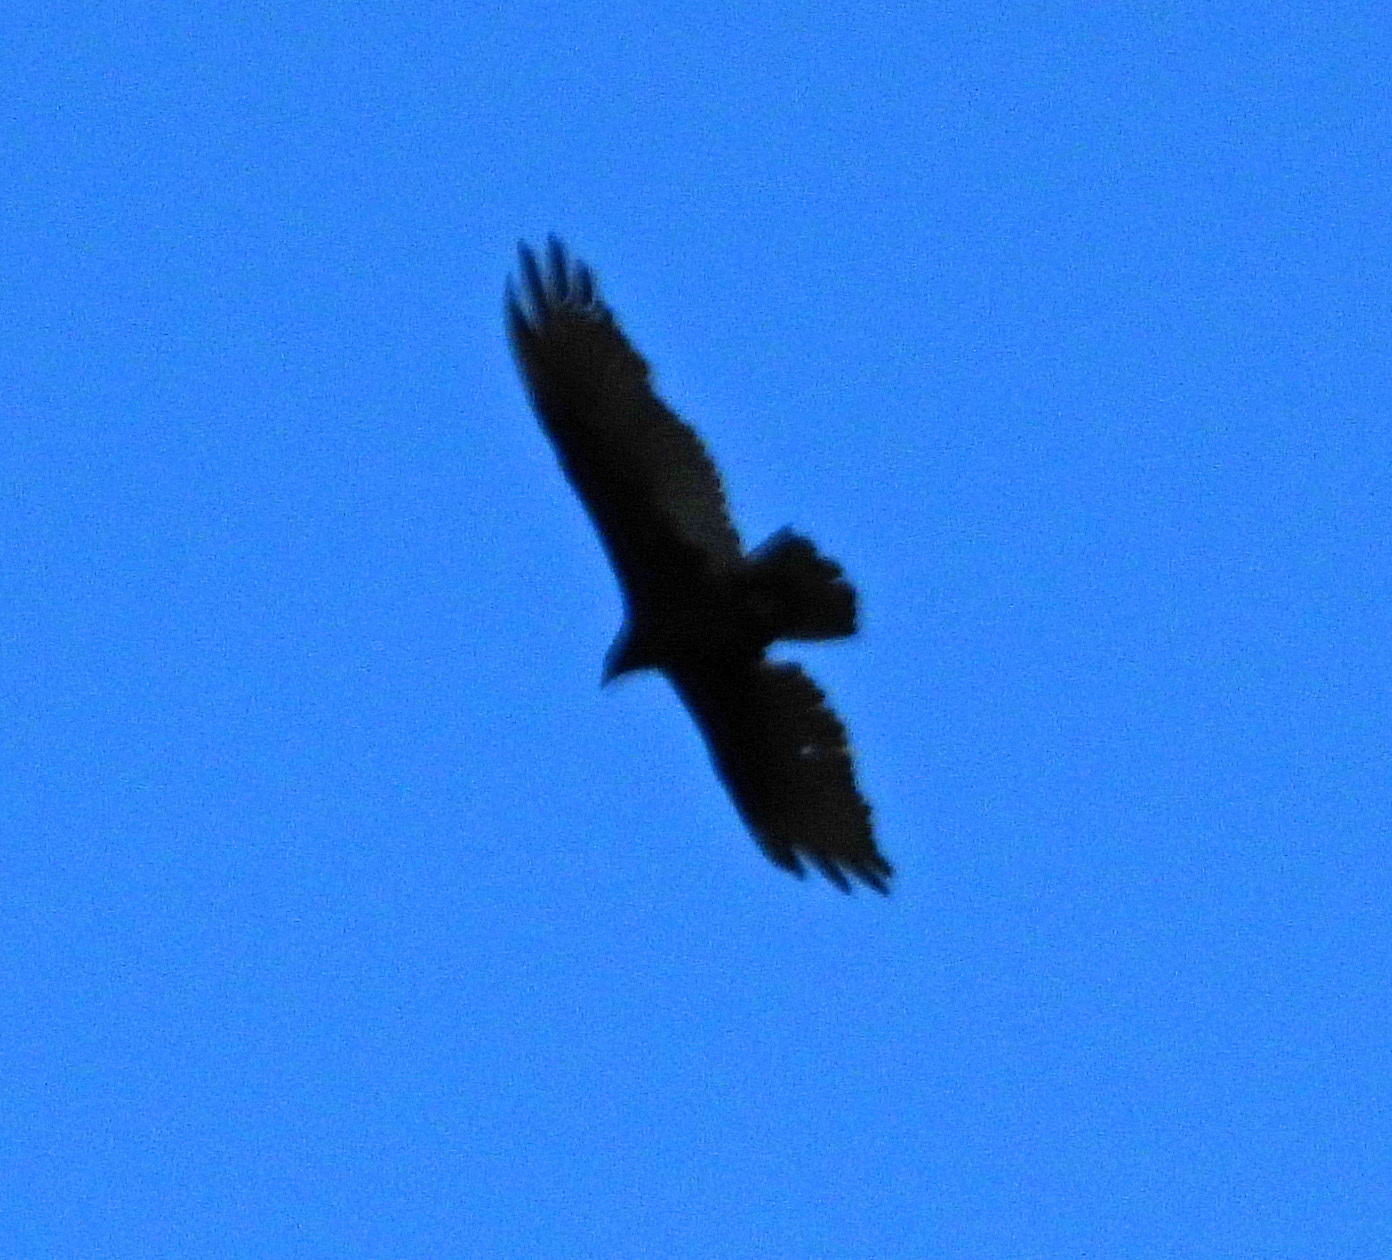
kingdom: Animalia
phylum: Chordata
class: Aves
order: Accipitriformes
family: Cathartidae
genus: Cathartes
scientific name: Cathartes aura
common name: Turkey vulture
